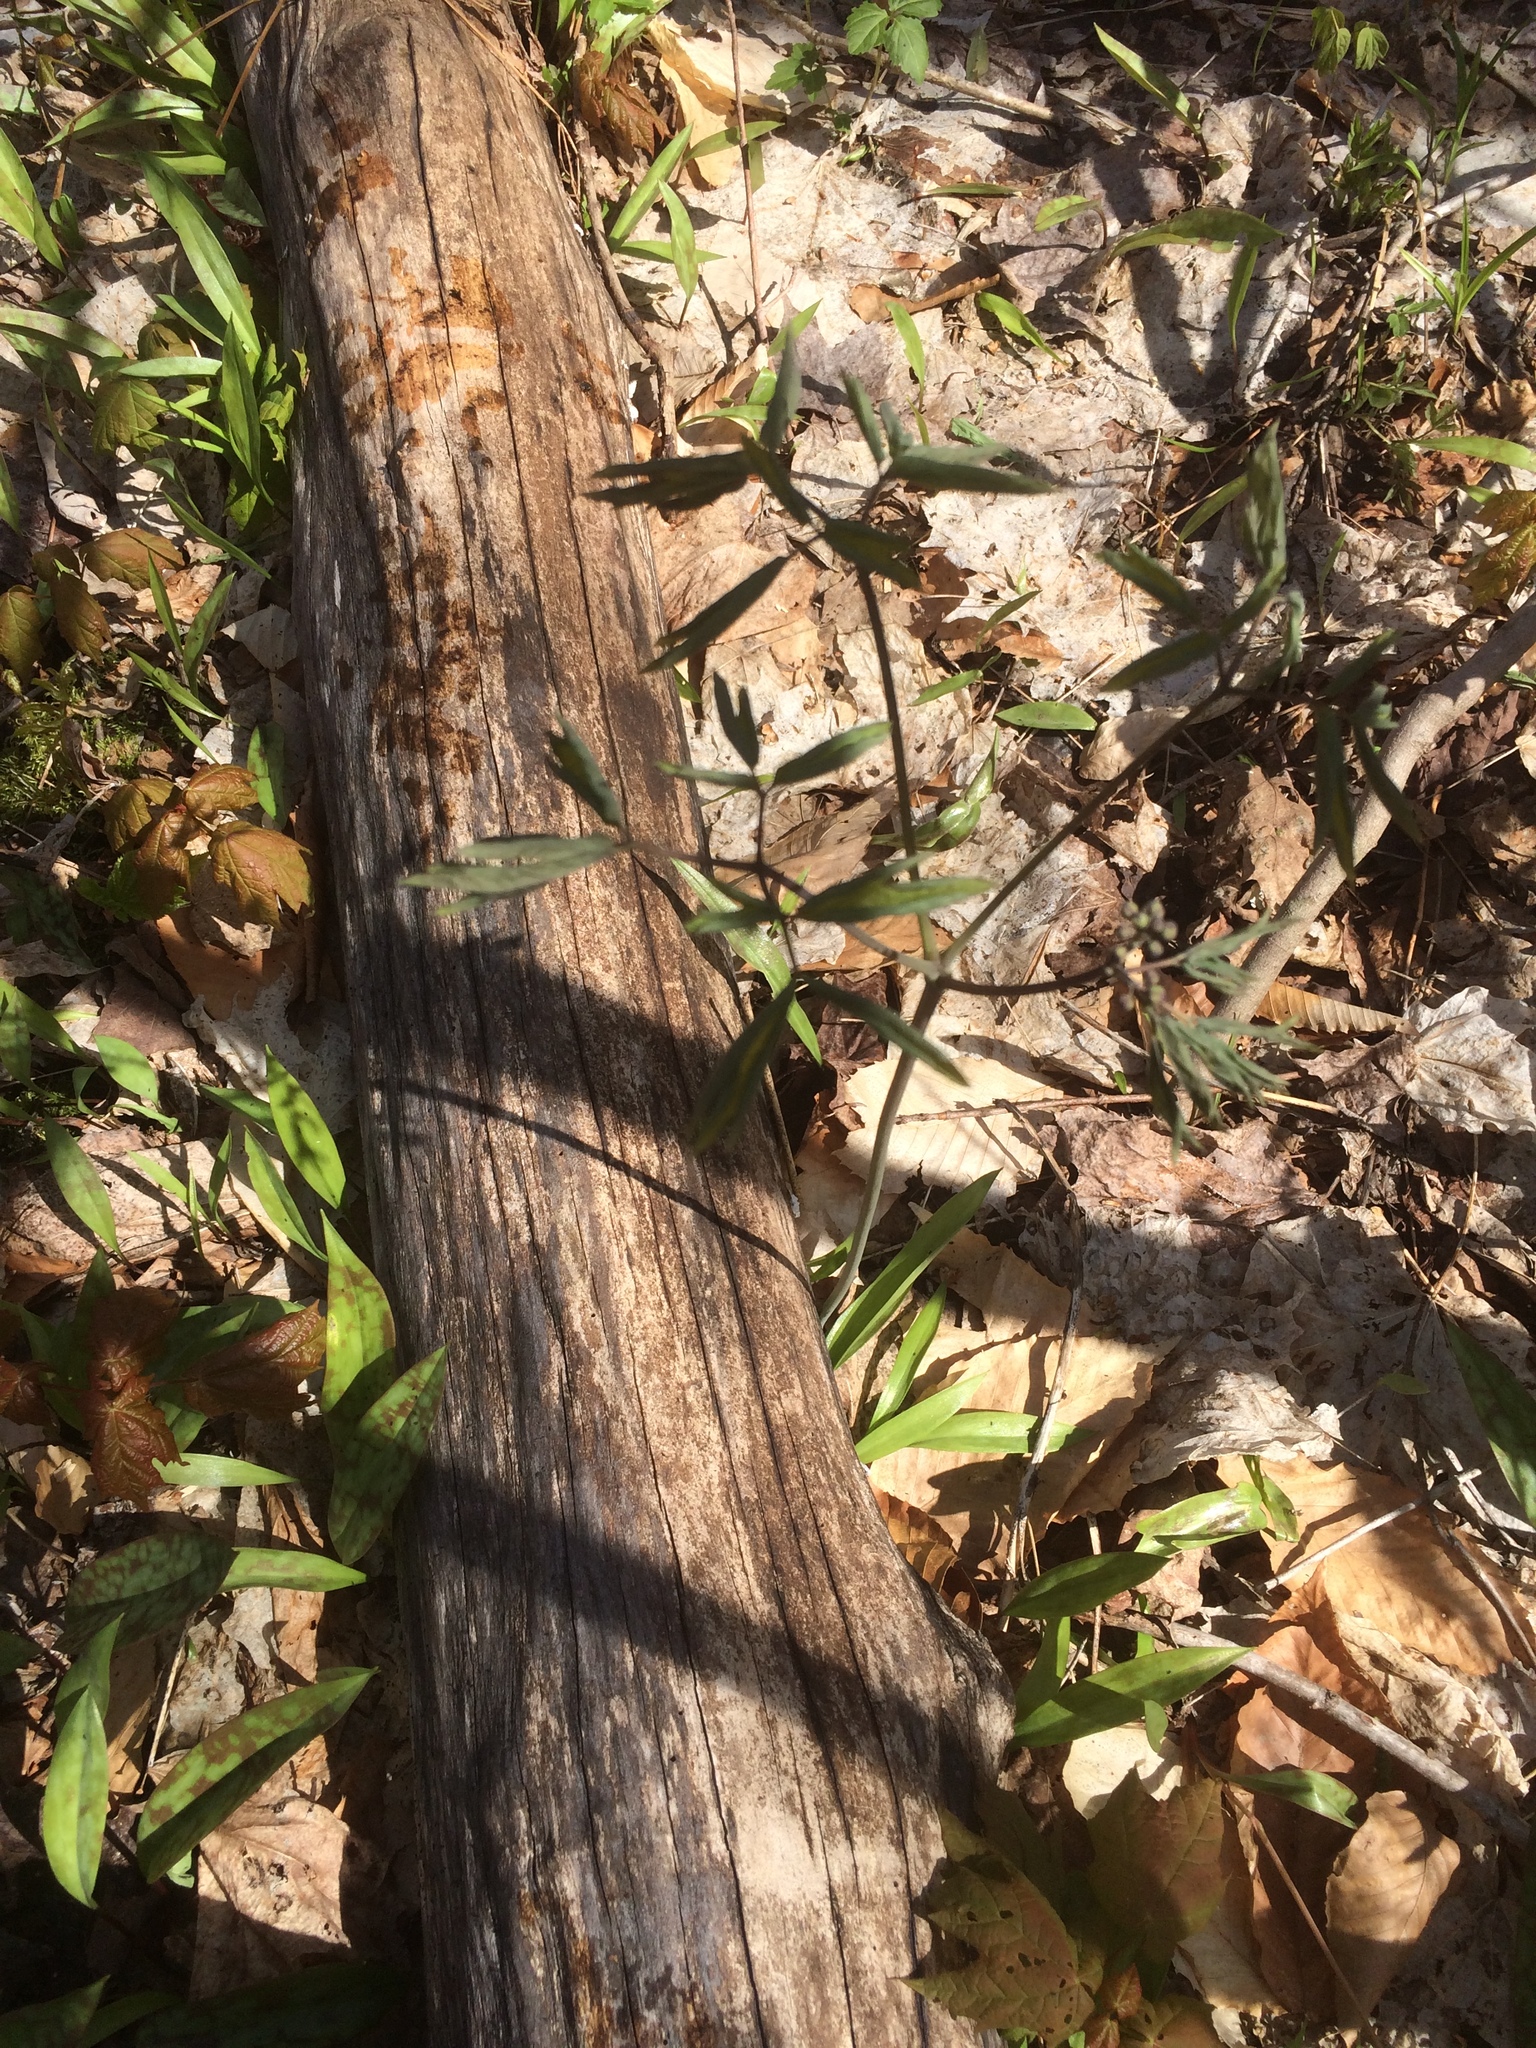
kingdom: Plantae
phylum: Tracheophyta
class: Magnoliopsida
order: Ranunculales
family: Berberidaceae
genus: Caulophyllum
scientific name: Caulophyllum
